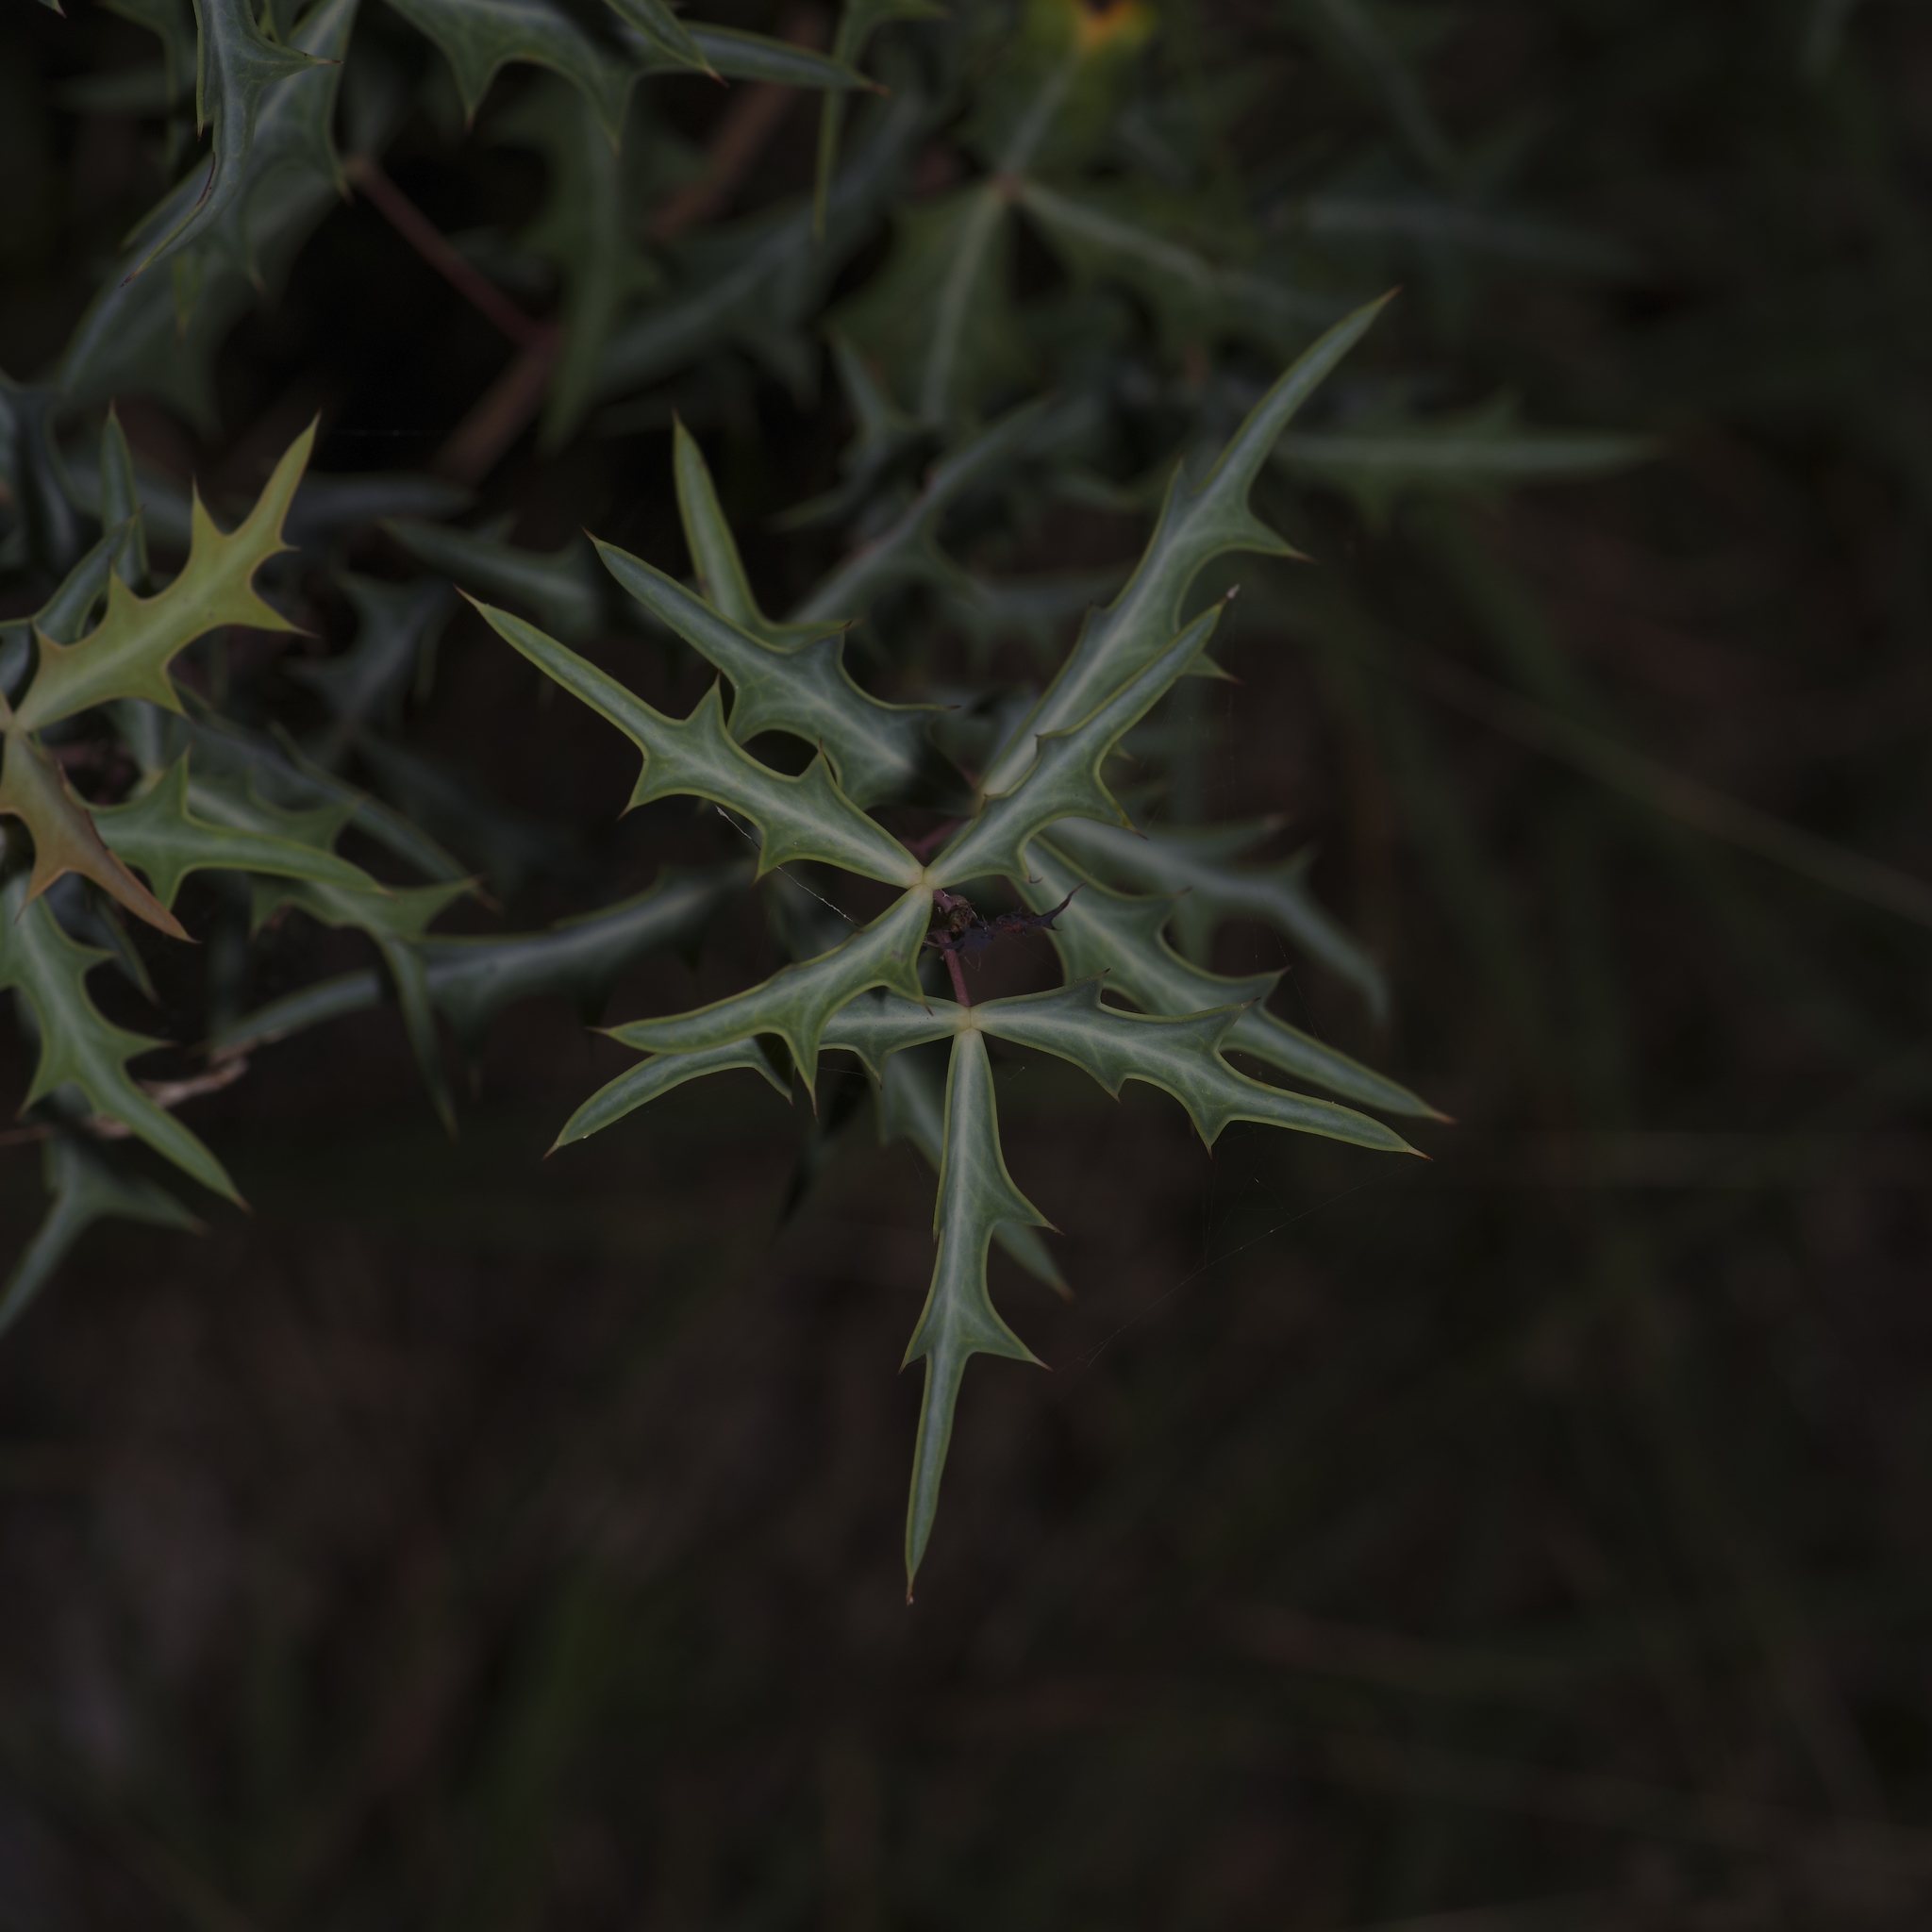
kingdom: Plantae
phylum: Tracheophyta
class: Magnoliopsida
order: Ranunculales
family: Berberidaceae
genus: Alloberberis
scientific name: Alloberberis trifoliolata
